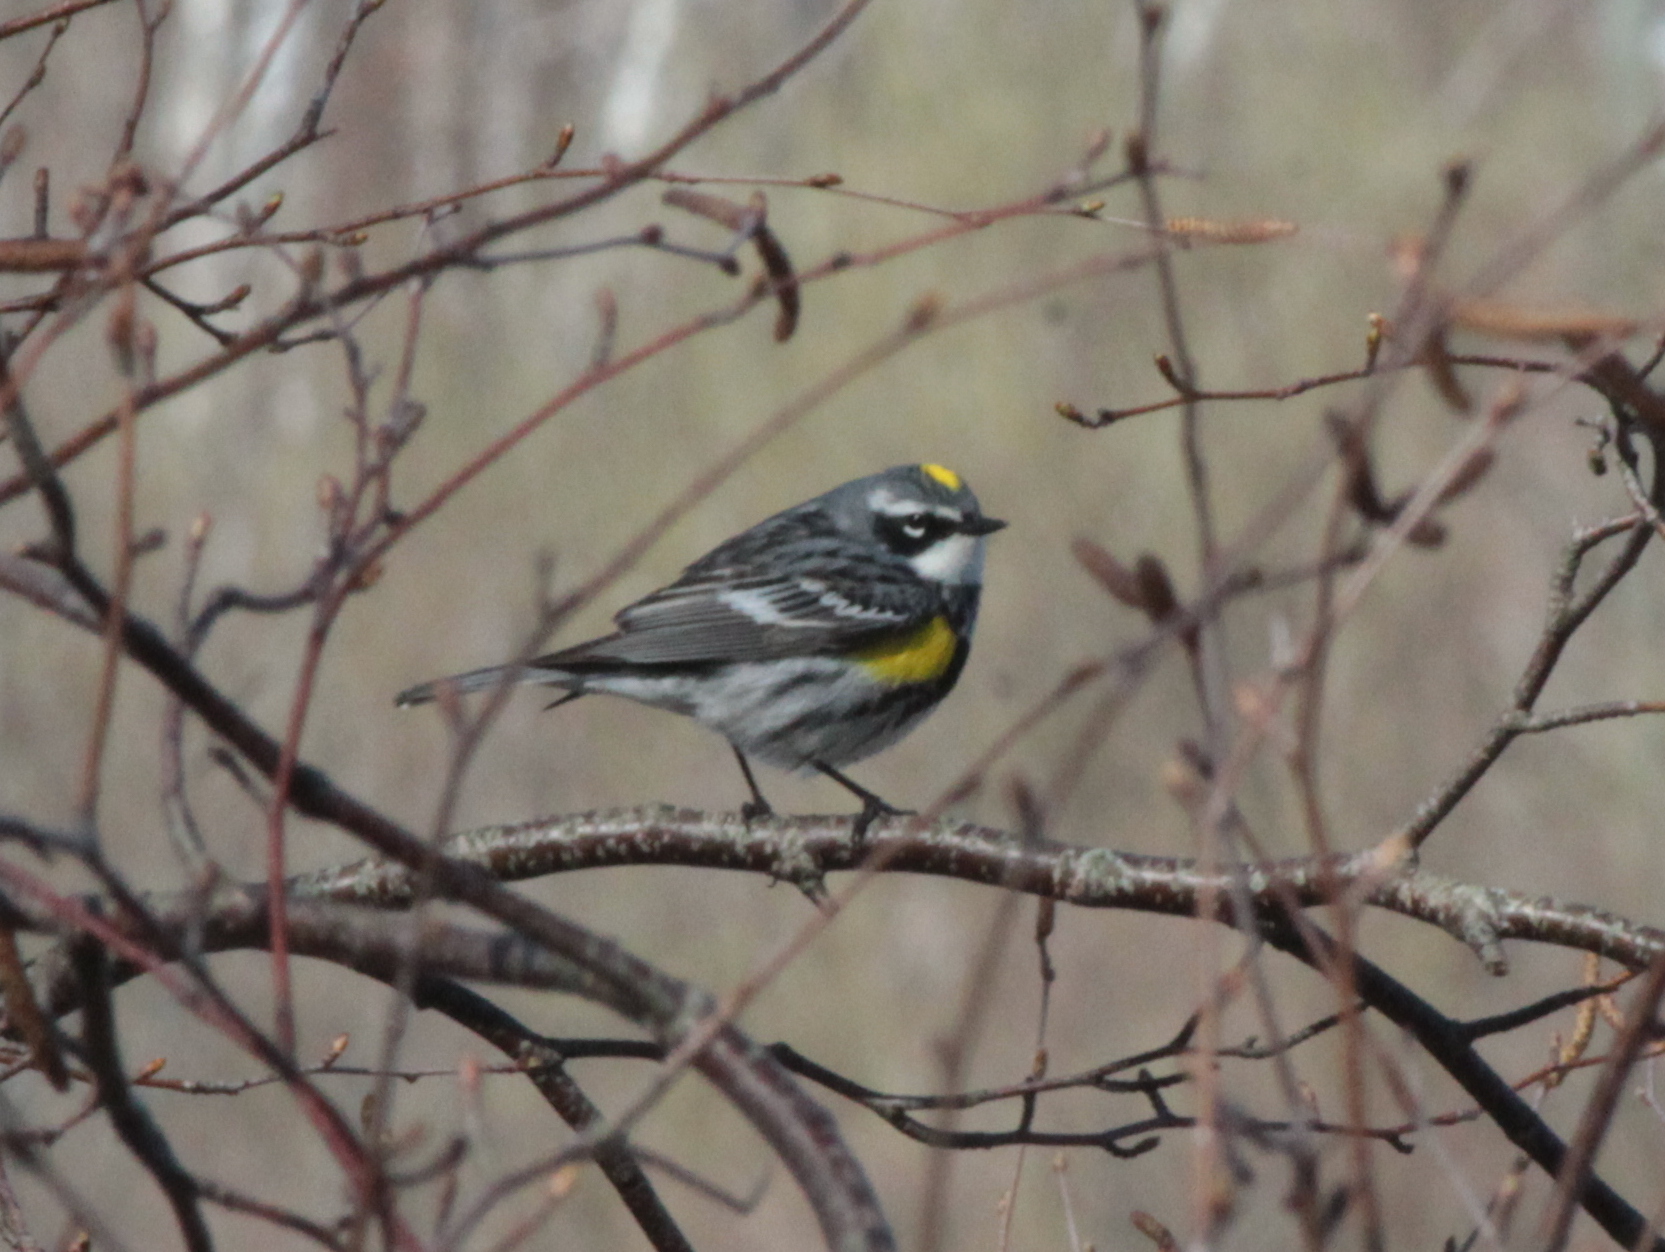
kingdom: Animalia
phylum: Chordata
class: Aves
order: Passeriformes
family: Parulidae
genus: Setophaga
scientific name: Setophaga coronata
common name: Myrtle warbler
